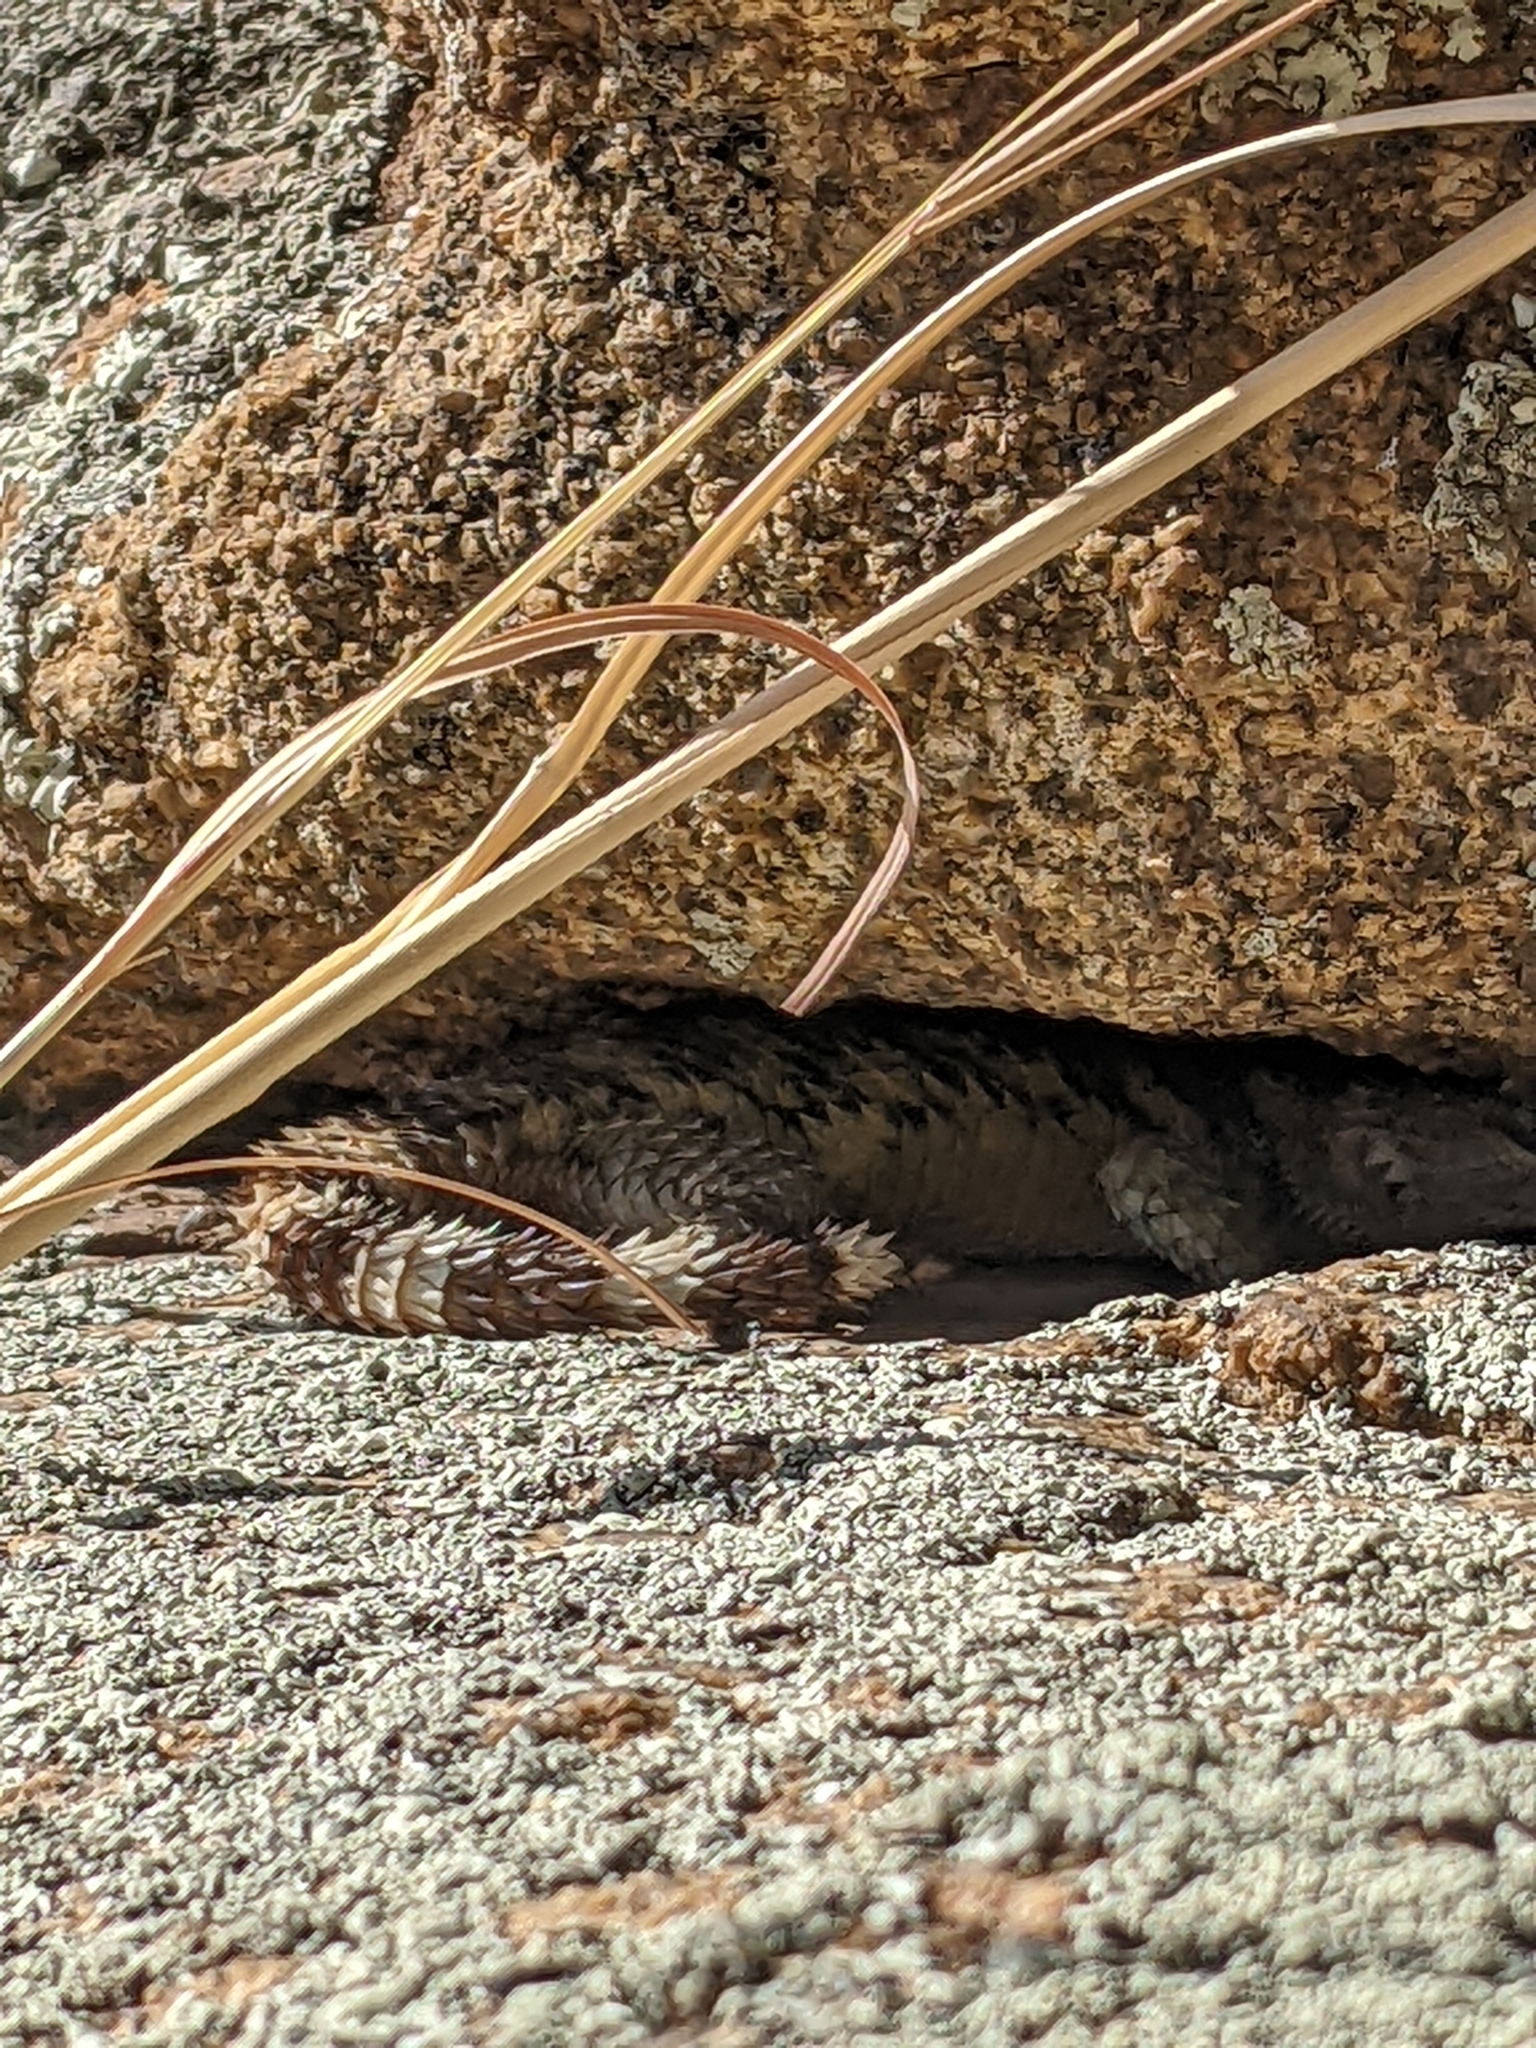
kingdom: Animalia
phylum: Chordata
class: Squamata
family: Phrynosomatidae
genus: Sceloporus
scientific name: Sceloporus poinsettii
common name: Crevice spiny lizard
